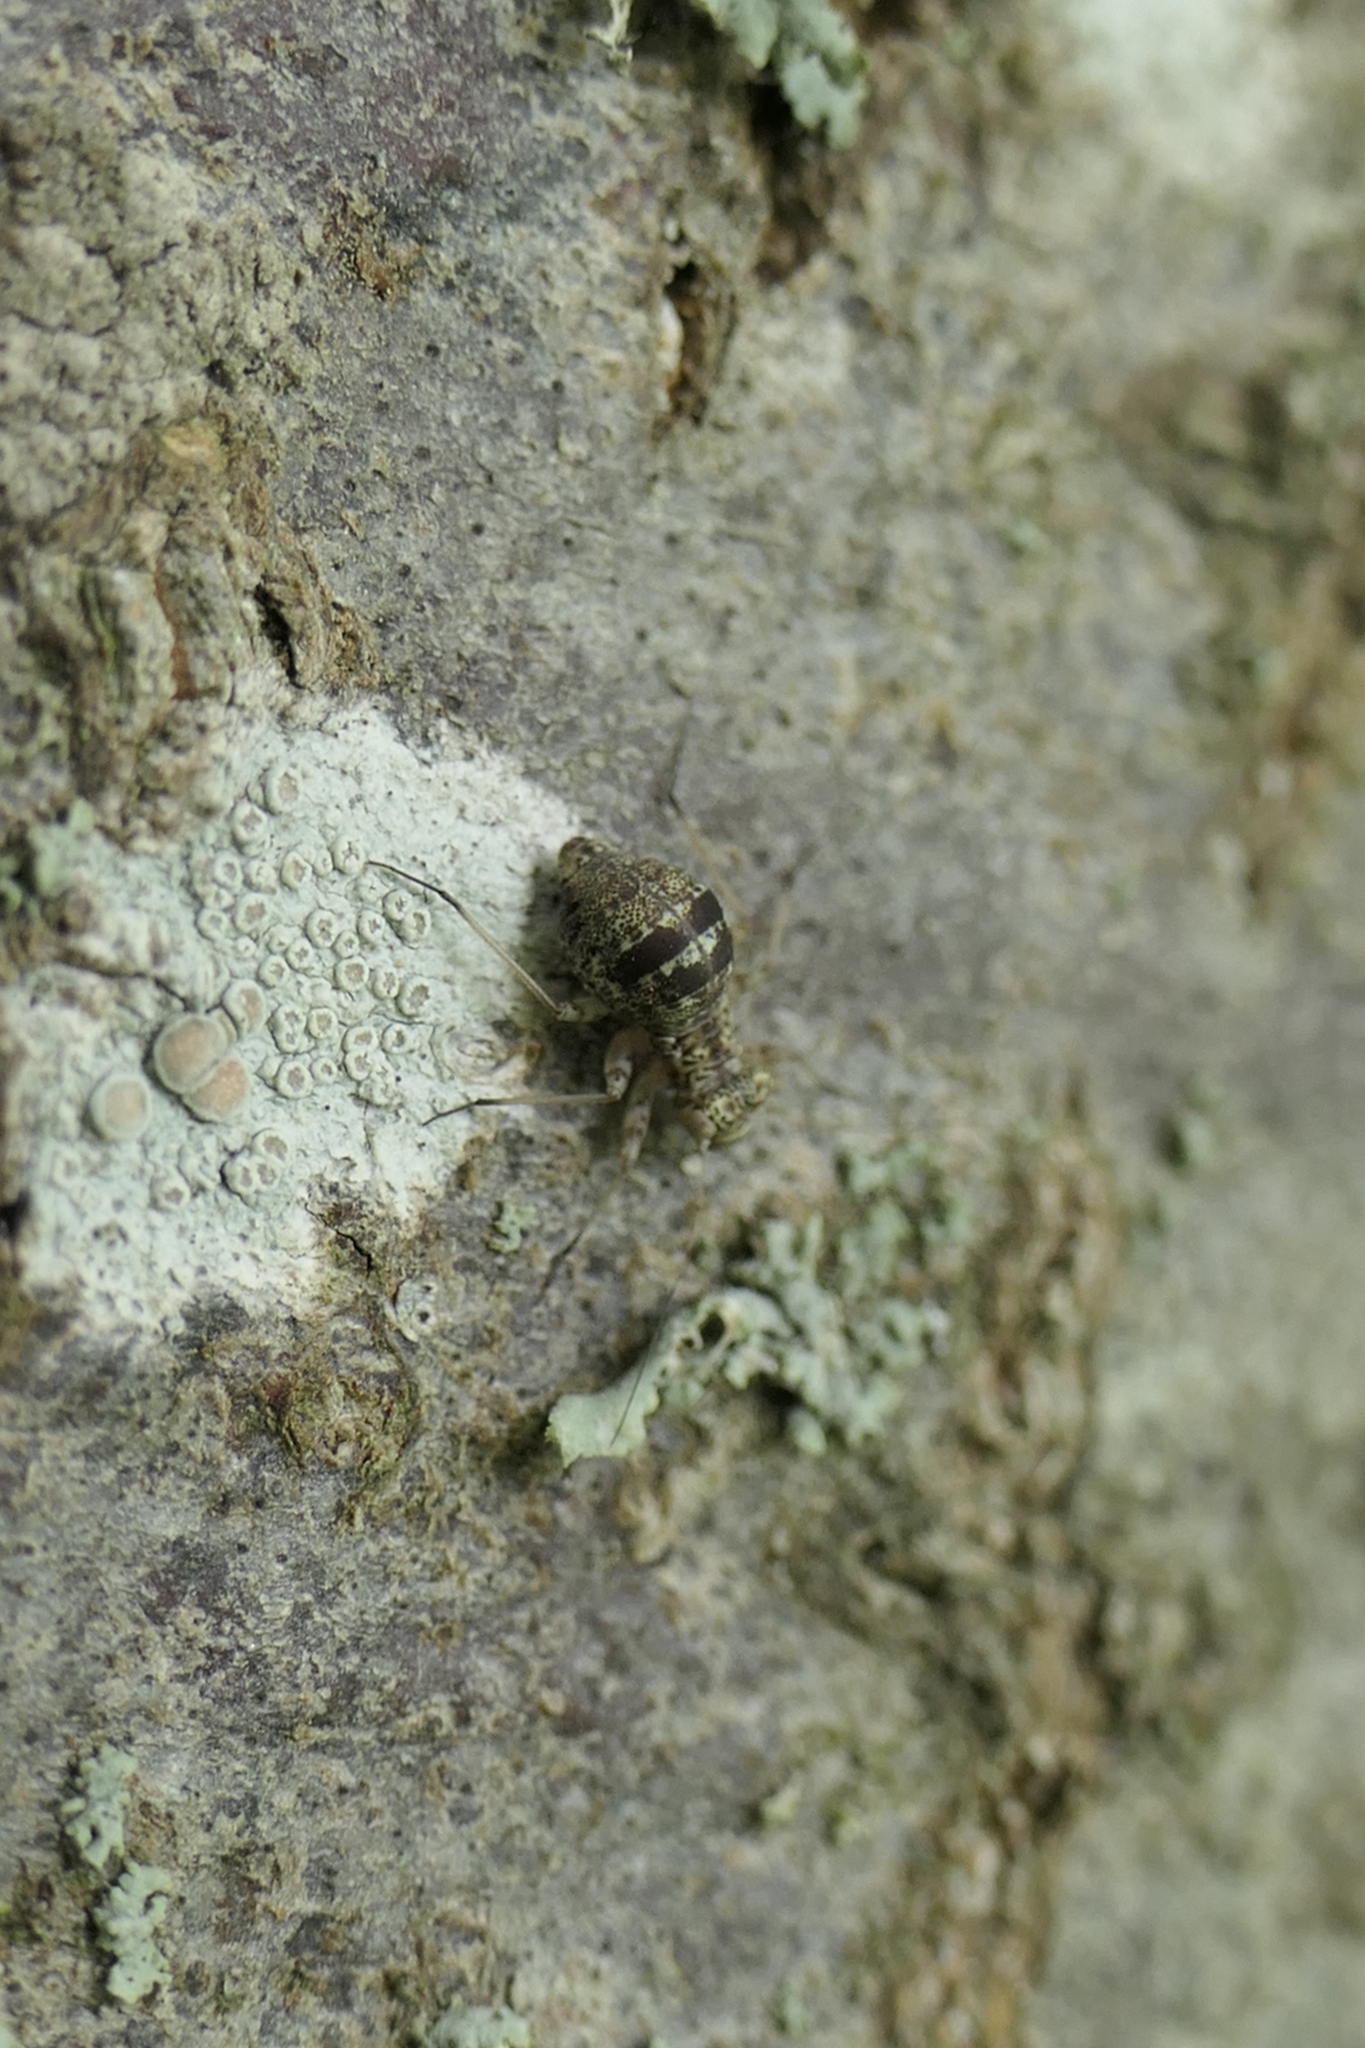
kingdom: Animalia
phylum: Arthropoda
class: Insecta
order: Psocodea
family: Mesopsocidae
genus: Mesopsocus
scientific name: Mesopsocus immunis
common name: Bark louse
